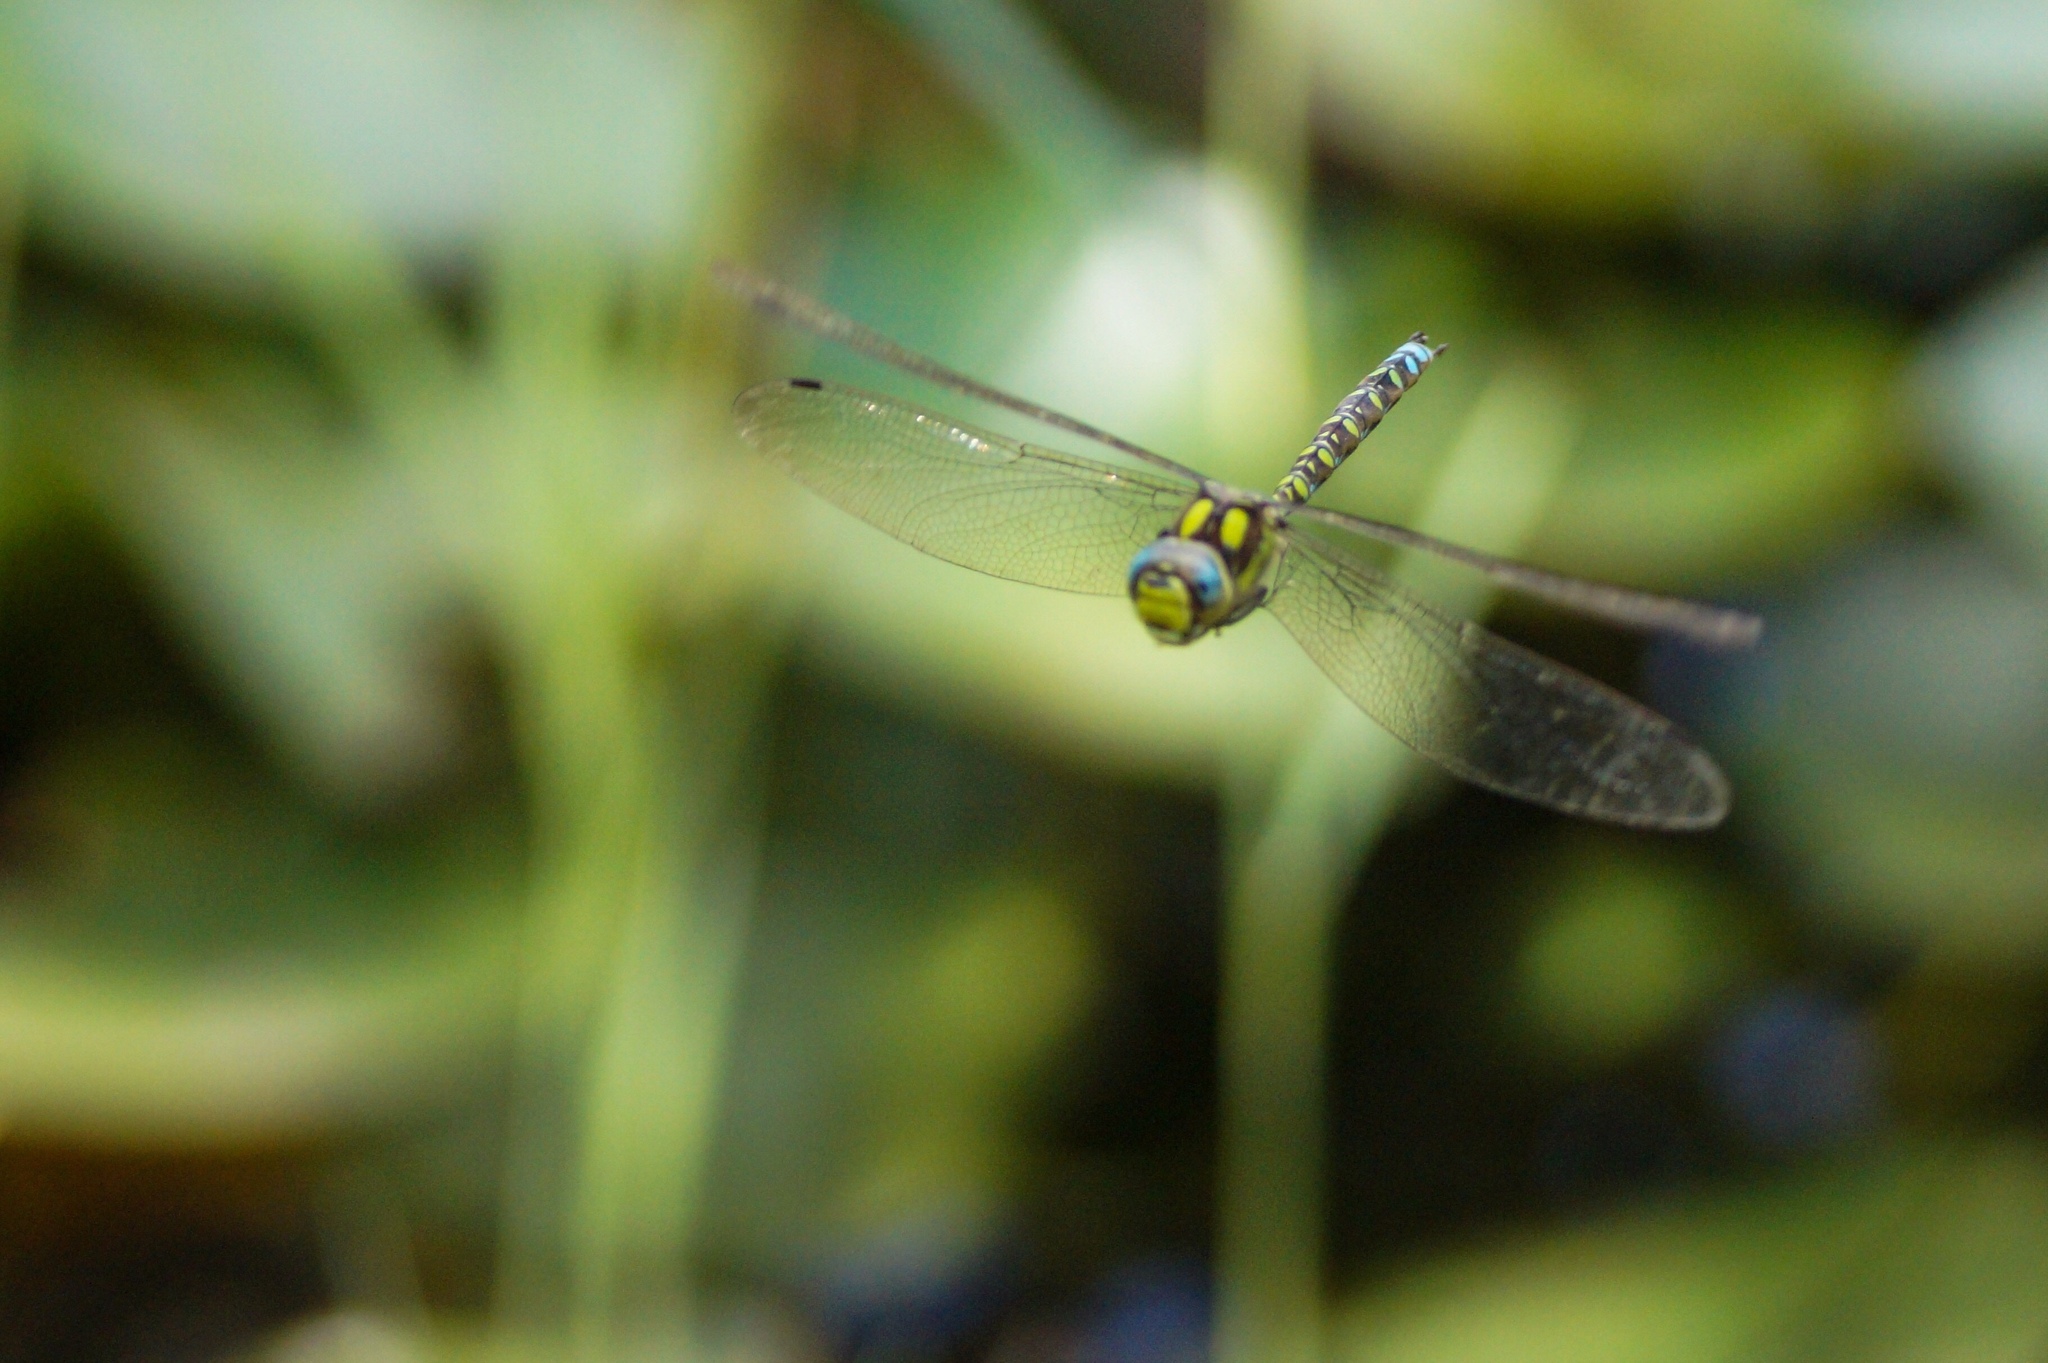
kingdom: Animalia
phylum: Arthropoda
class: Insecta
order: Odonata
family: Aeshnidae
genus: Aeshna
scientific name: Aeshna cyanea
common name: Southern hawker
